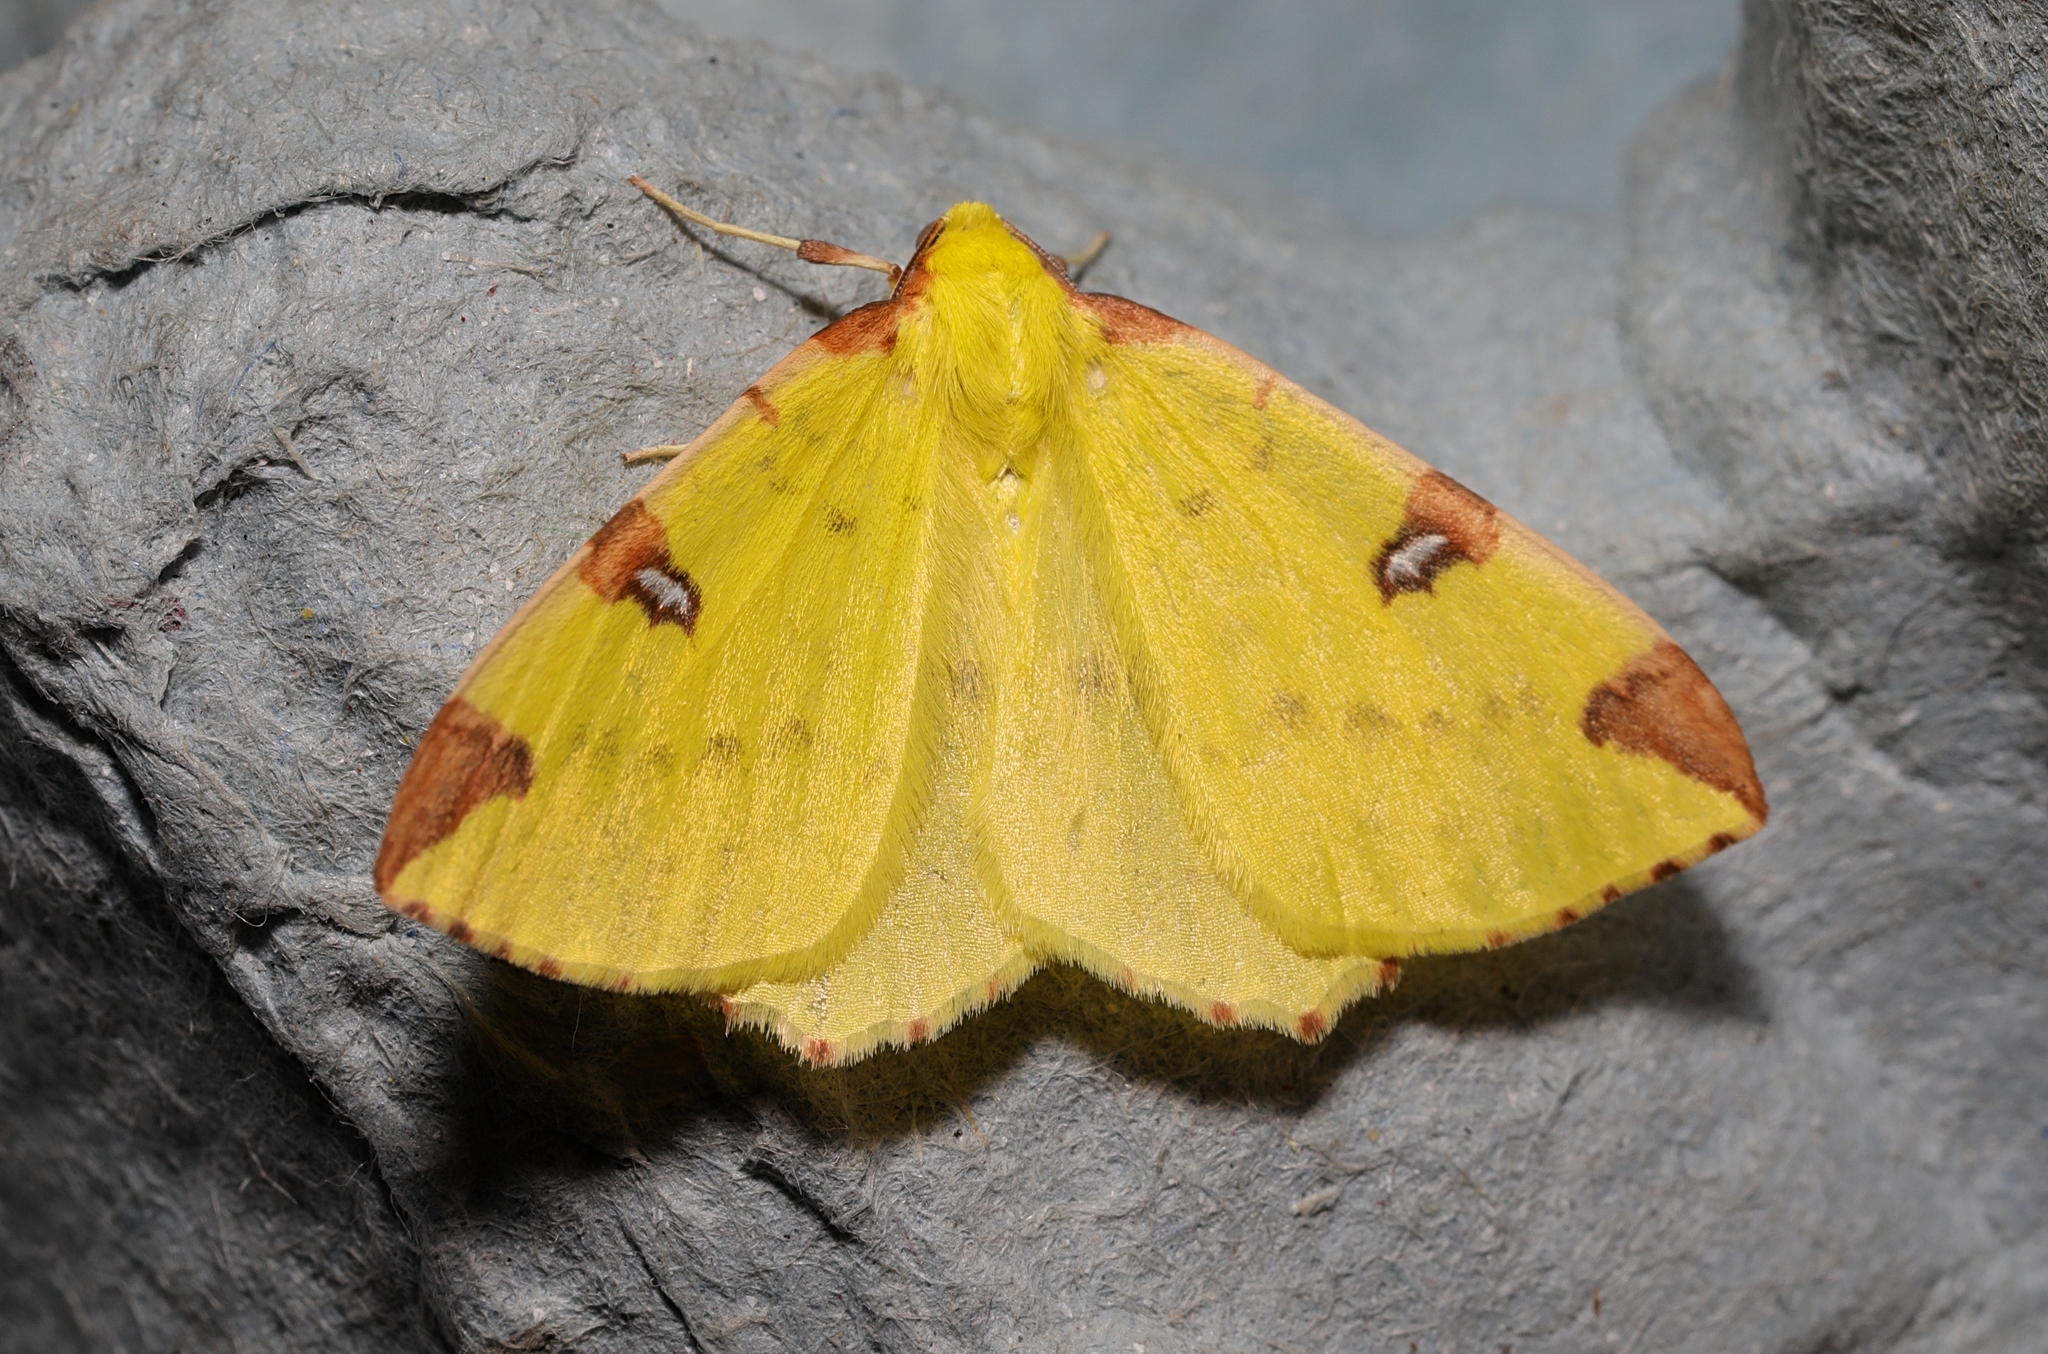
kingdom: Animalia
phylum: Arthropoda
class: Insecta
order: Lepidoptera
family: Geometridae
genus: Opisthograptis
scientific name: Opisthograptis luteolata
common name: Brimstone moth
